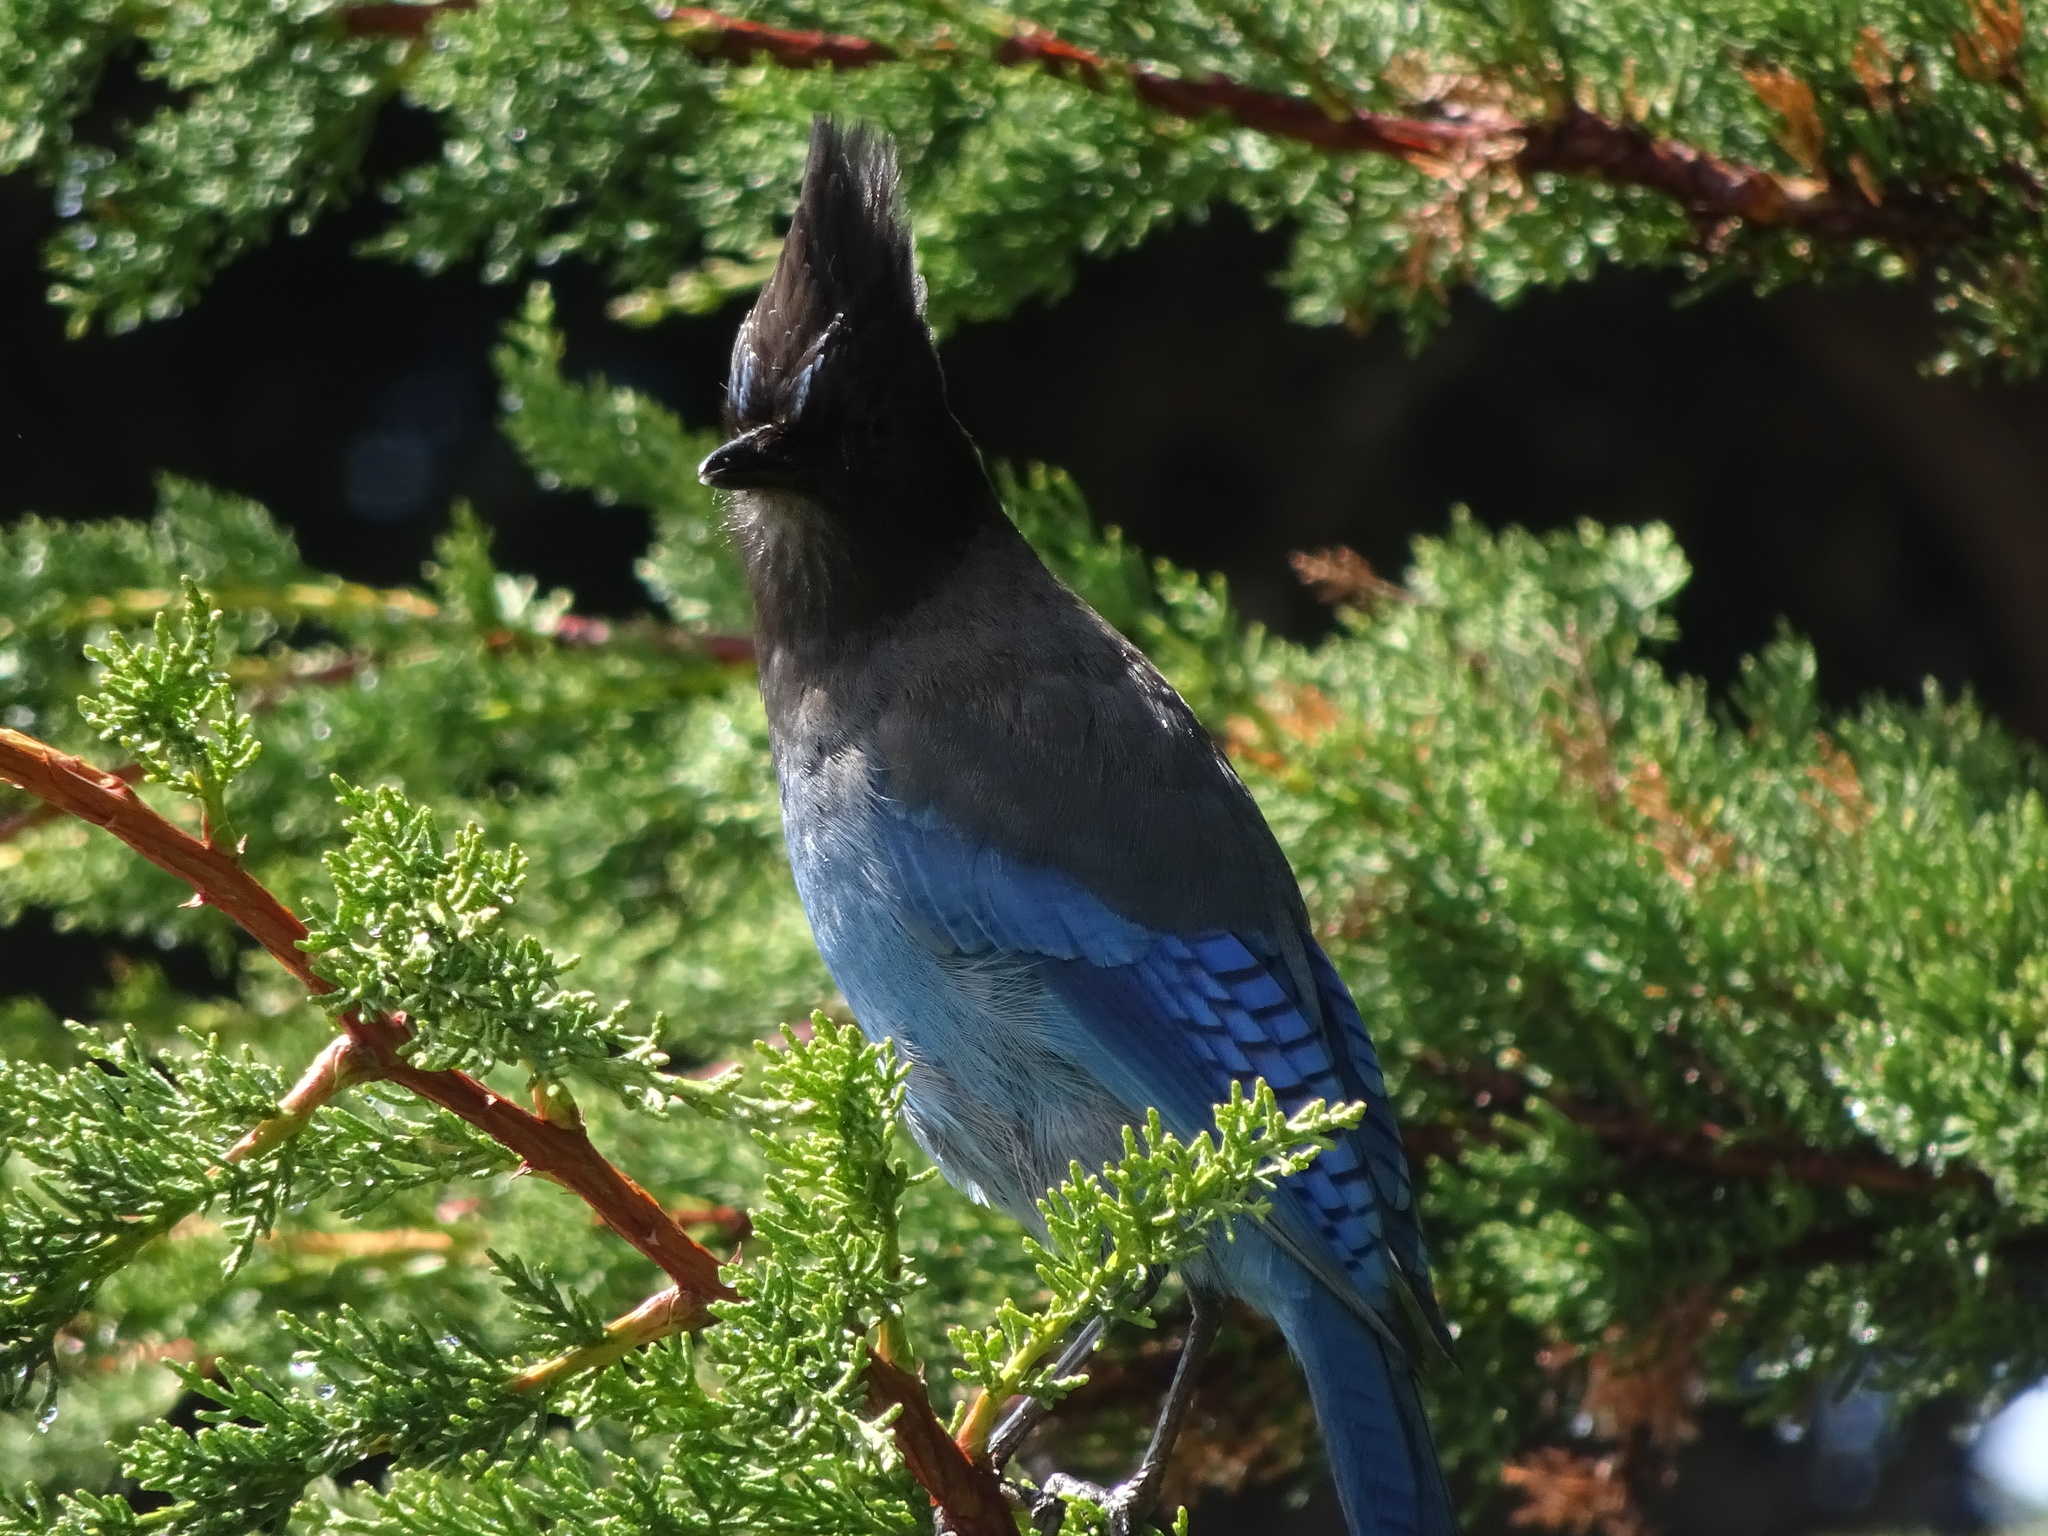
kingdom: Animalia
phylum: Chordata
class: Aves
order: Passeriformes
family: Corvidae
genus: Cyanocitta
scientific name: Cyanocitta stelleri
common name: Steller's jay
